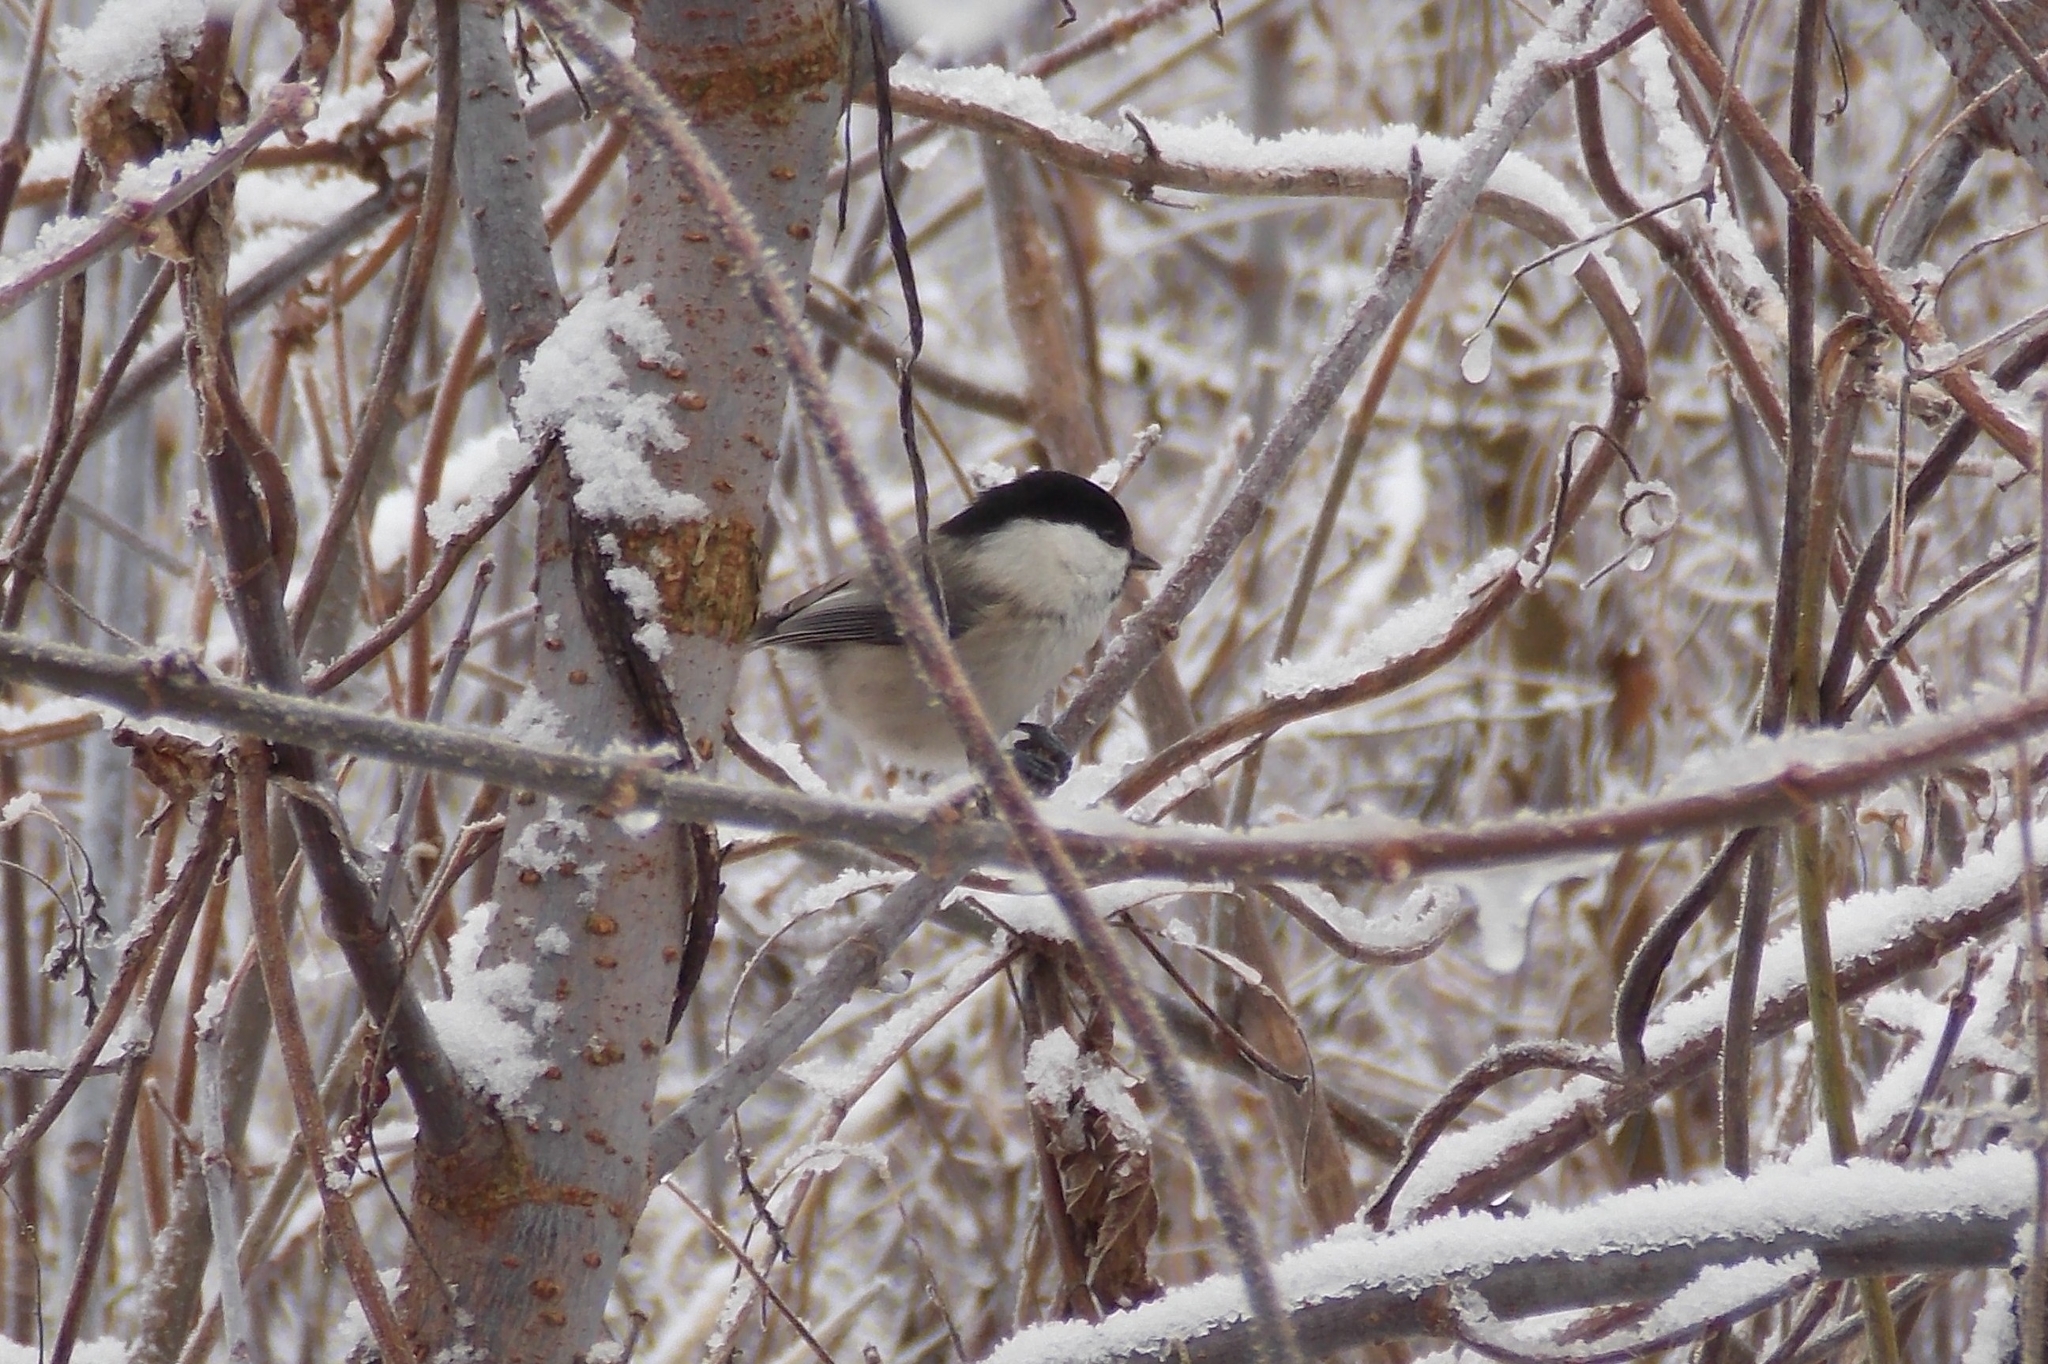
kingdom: Animalia
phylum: Chordata
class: Aves
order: Passeriformes
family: Paridae
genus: Poecile
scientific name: Poecile montanus
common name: Willow tit
